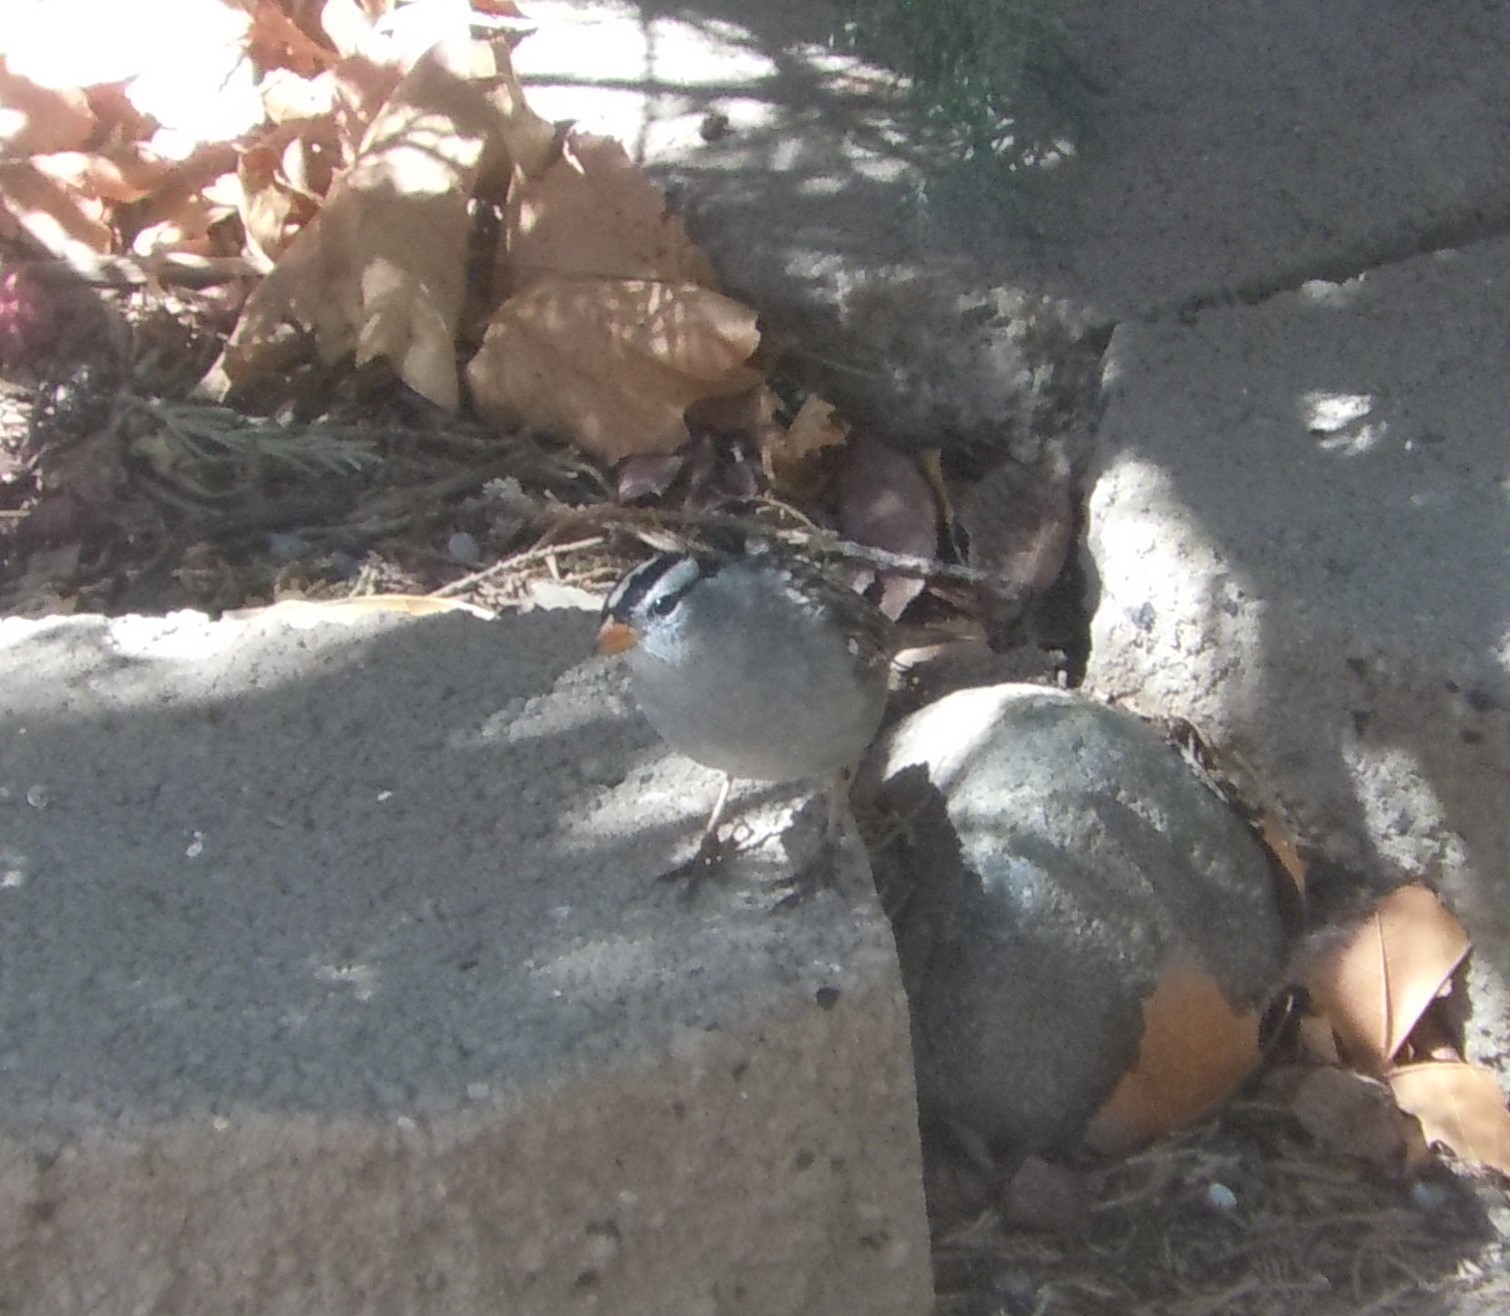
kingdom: Animalia
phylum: Chordata
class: Aves
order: Passeriformes
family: Passerellidae
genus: Zonotrichia
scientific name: Zonotrichia leucophrys
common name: White-crowned sparrow
